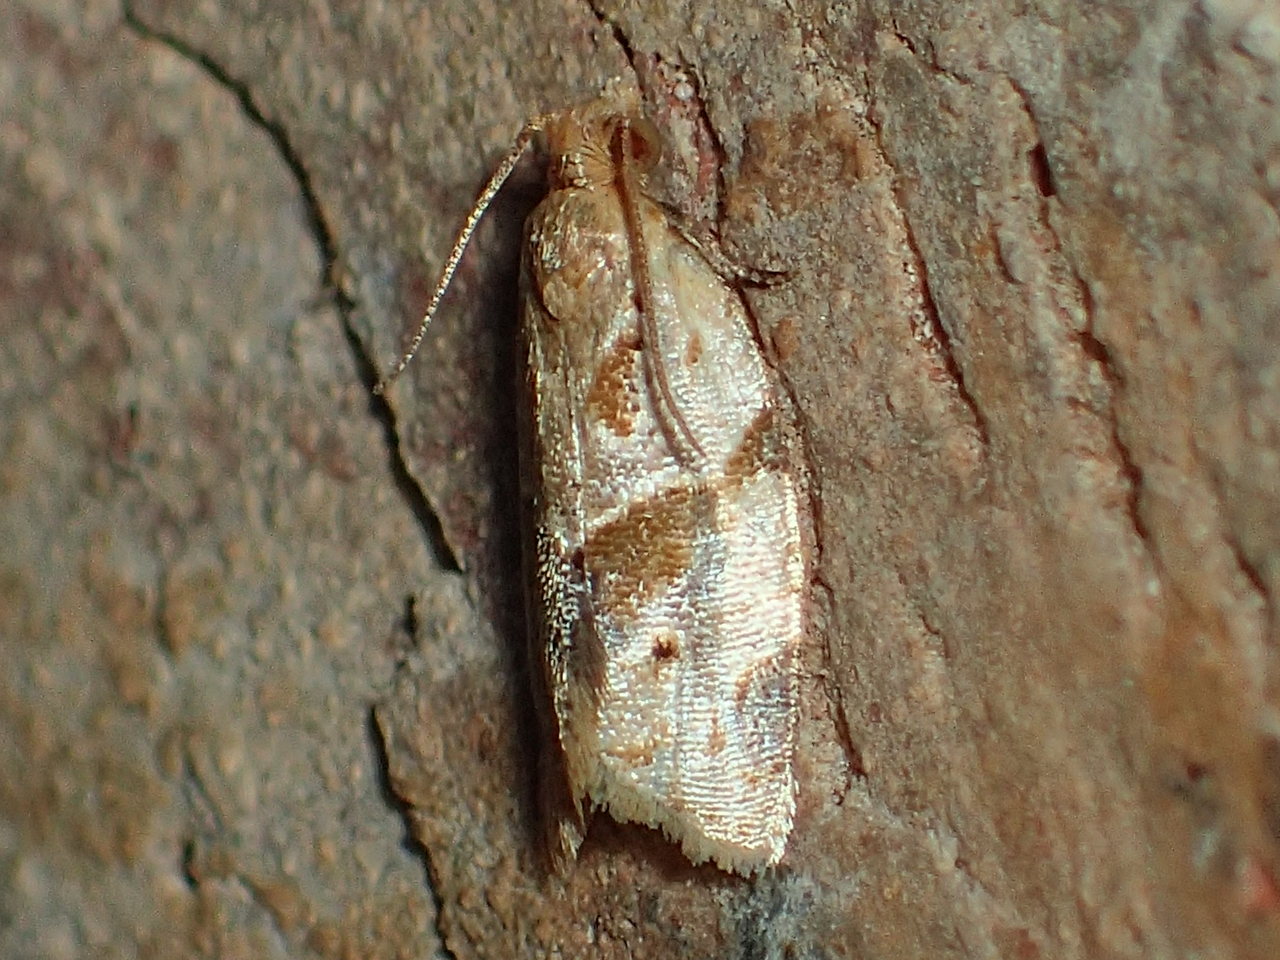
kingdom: Animalia
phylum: Arthropoda
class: Insecta
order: Lepidoptera
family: Tortricidae
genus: Clepsis
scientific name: Clepsis peritana
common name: Garden tortrix
